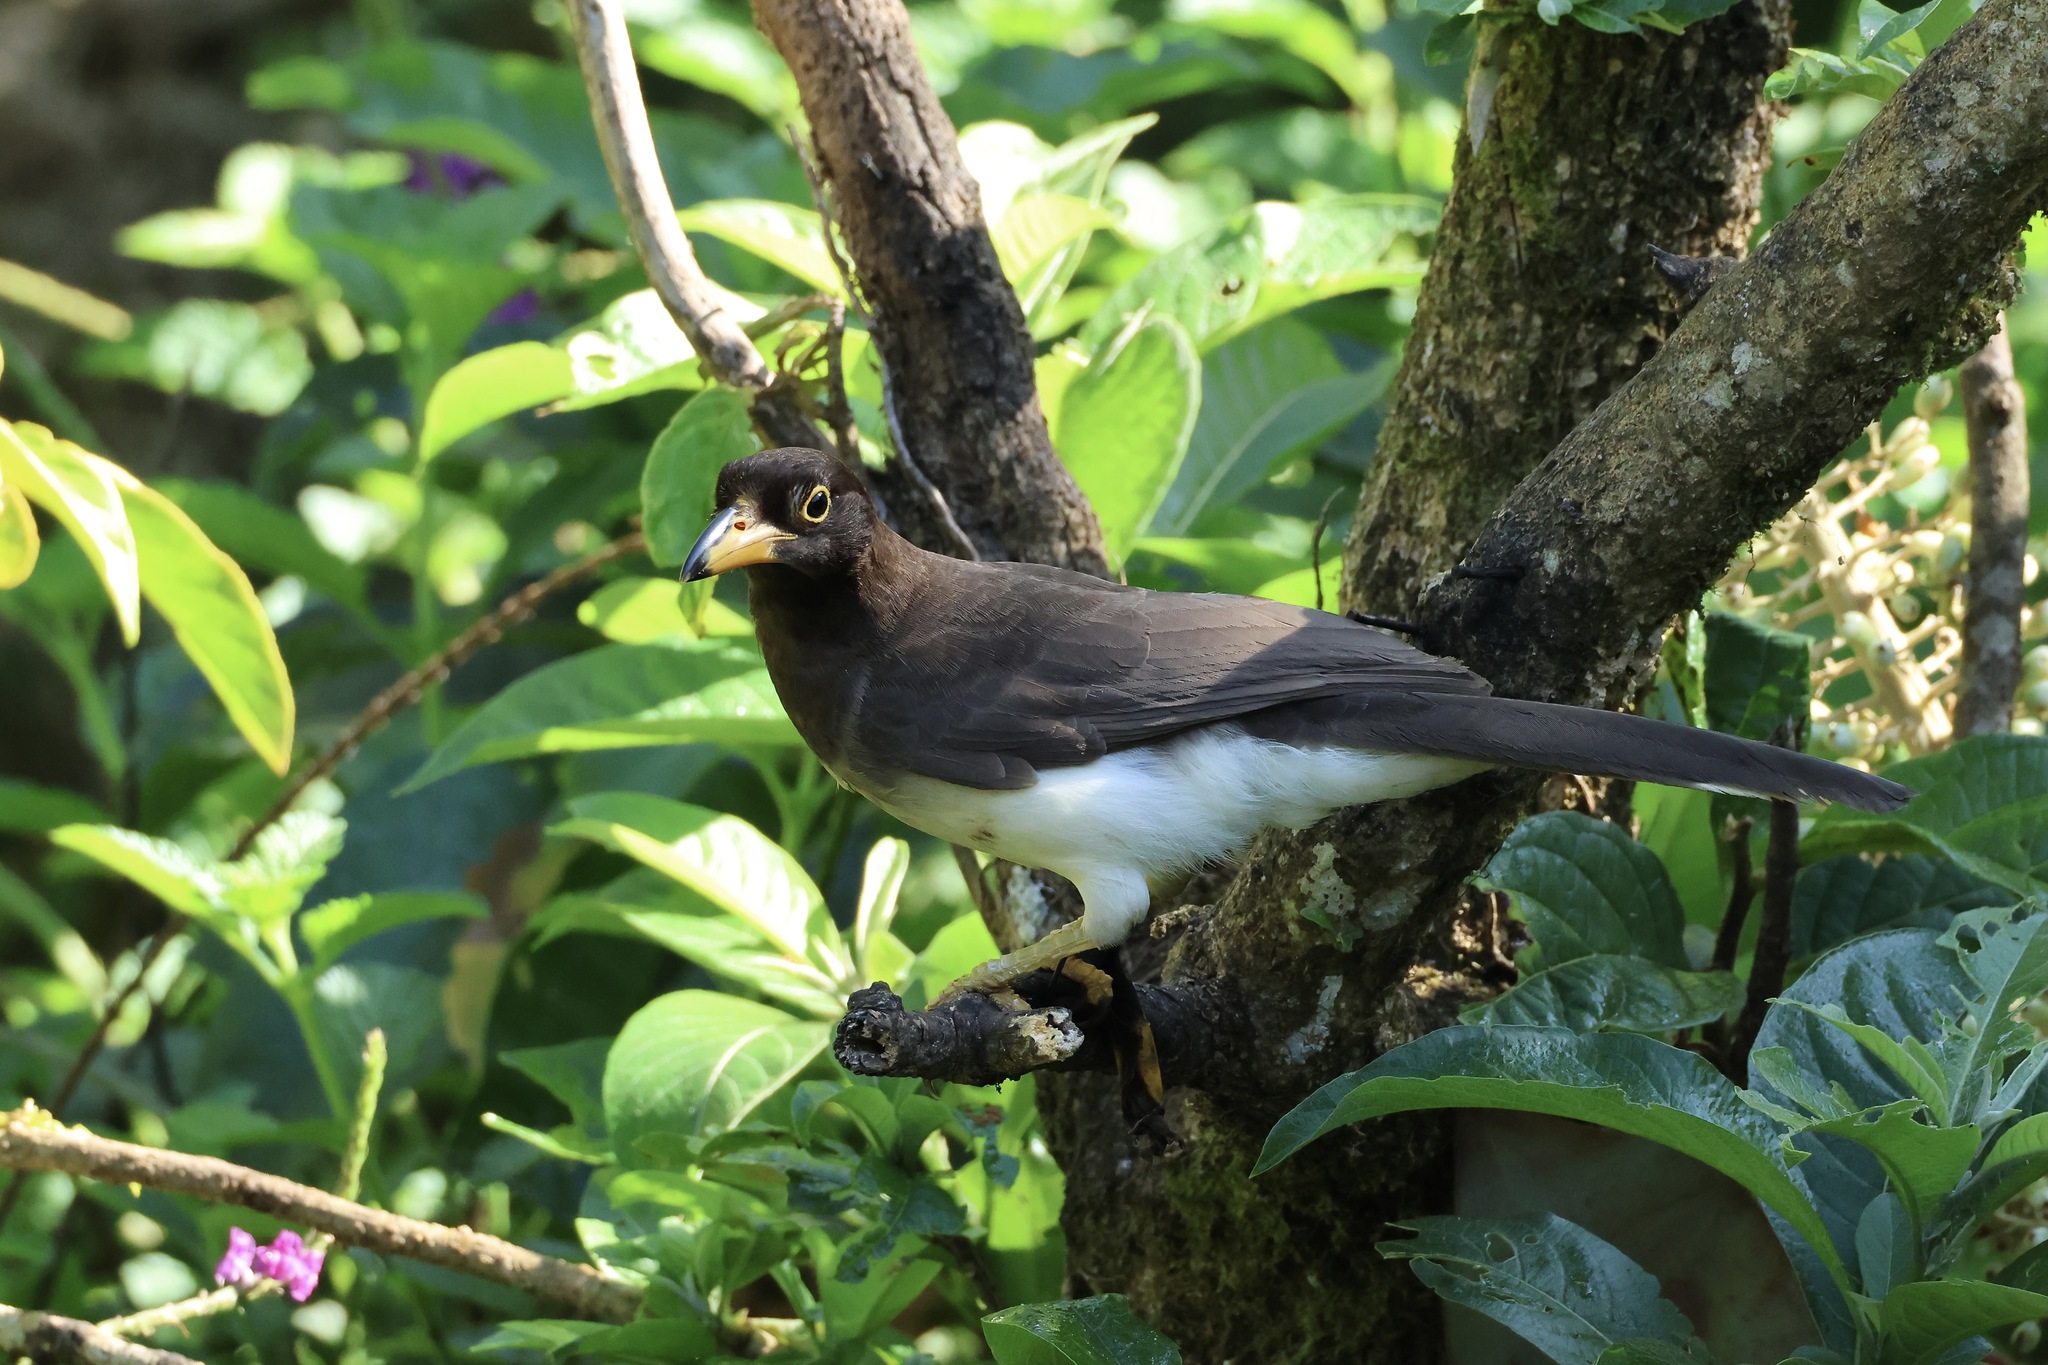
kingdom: Animalia
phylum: Chordata
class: Aves
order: Passeriformes
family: Corvidae
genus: Psilorhinus
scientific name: Psilorhinus morio
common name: Brown jay
